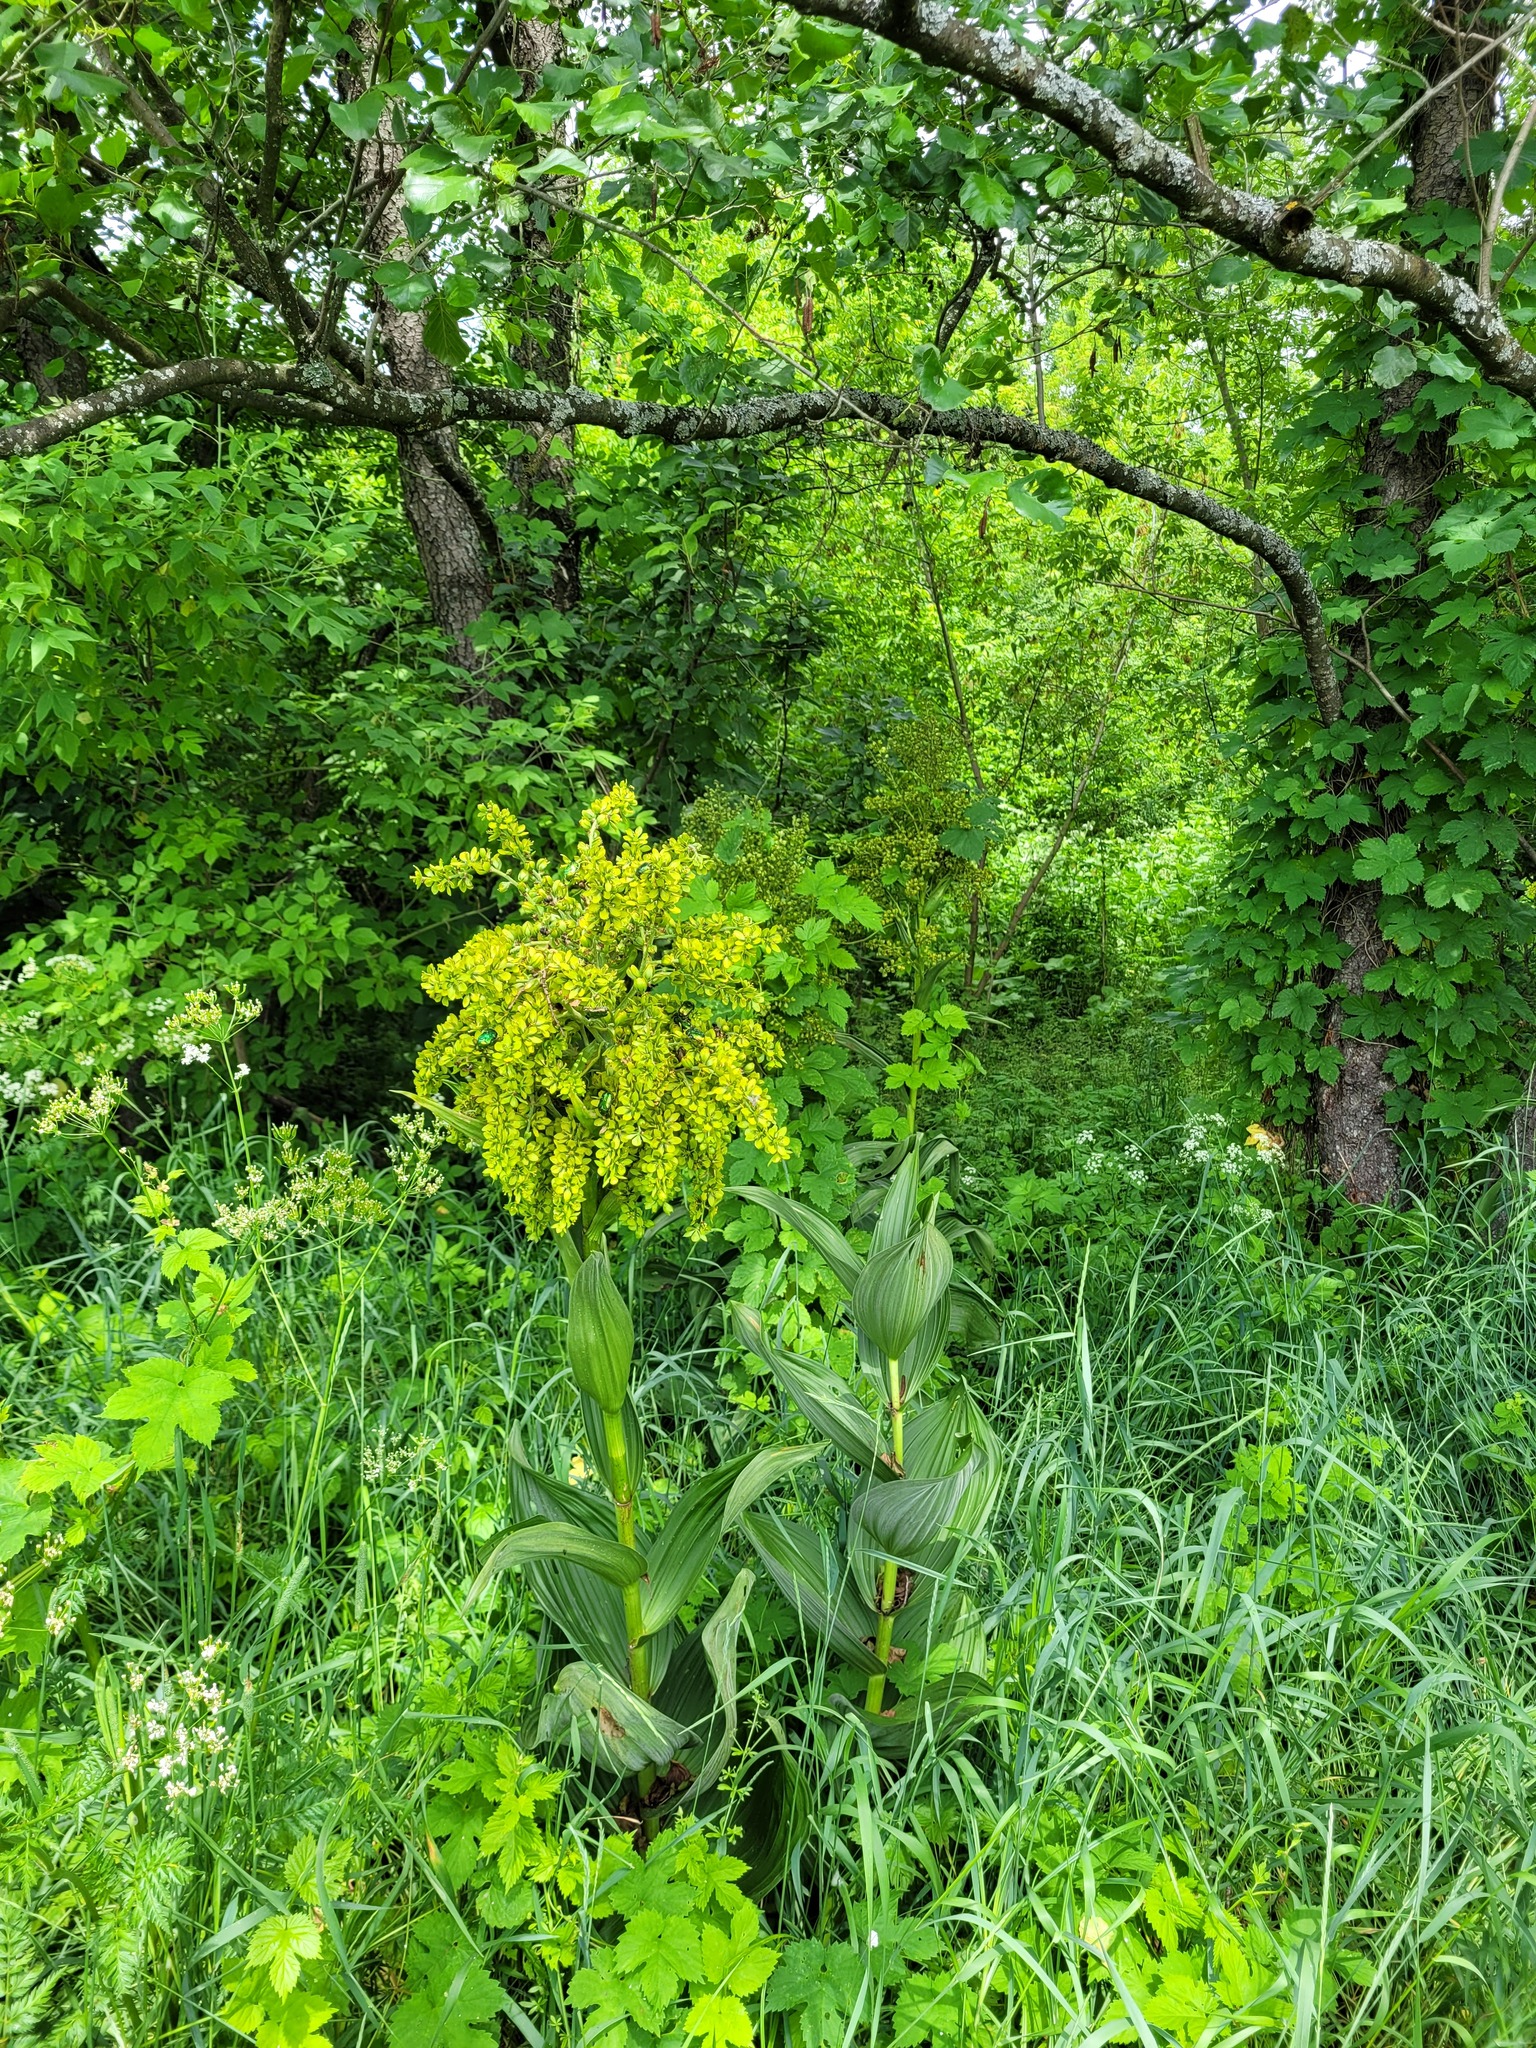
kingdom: Plantae
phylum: Tracheophyta
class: Liliopsida
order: Liliales
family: Melanthiaceae
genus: Veratrum
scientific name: Veratrum lobelianum
